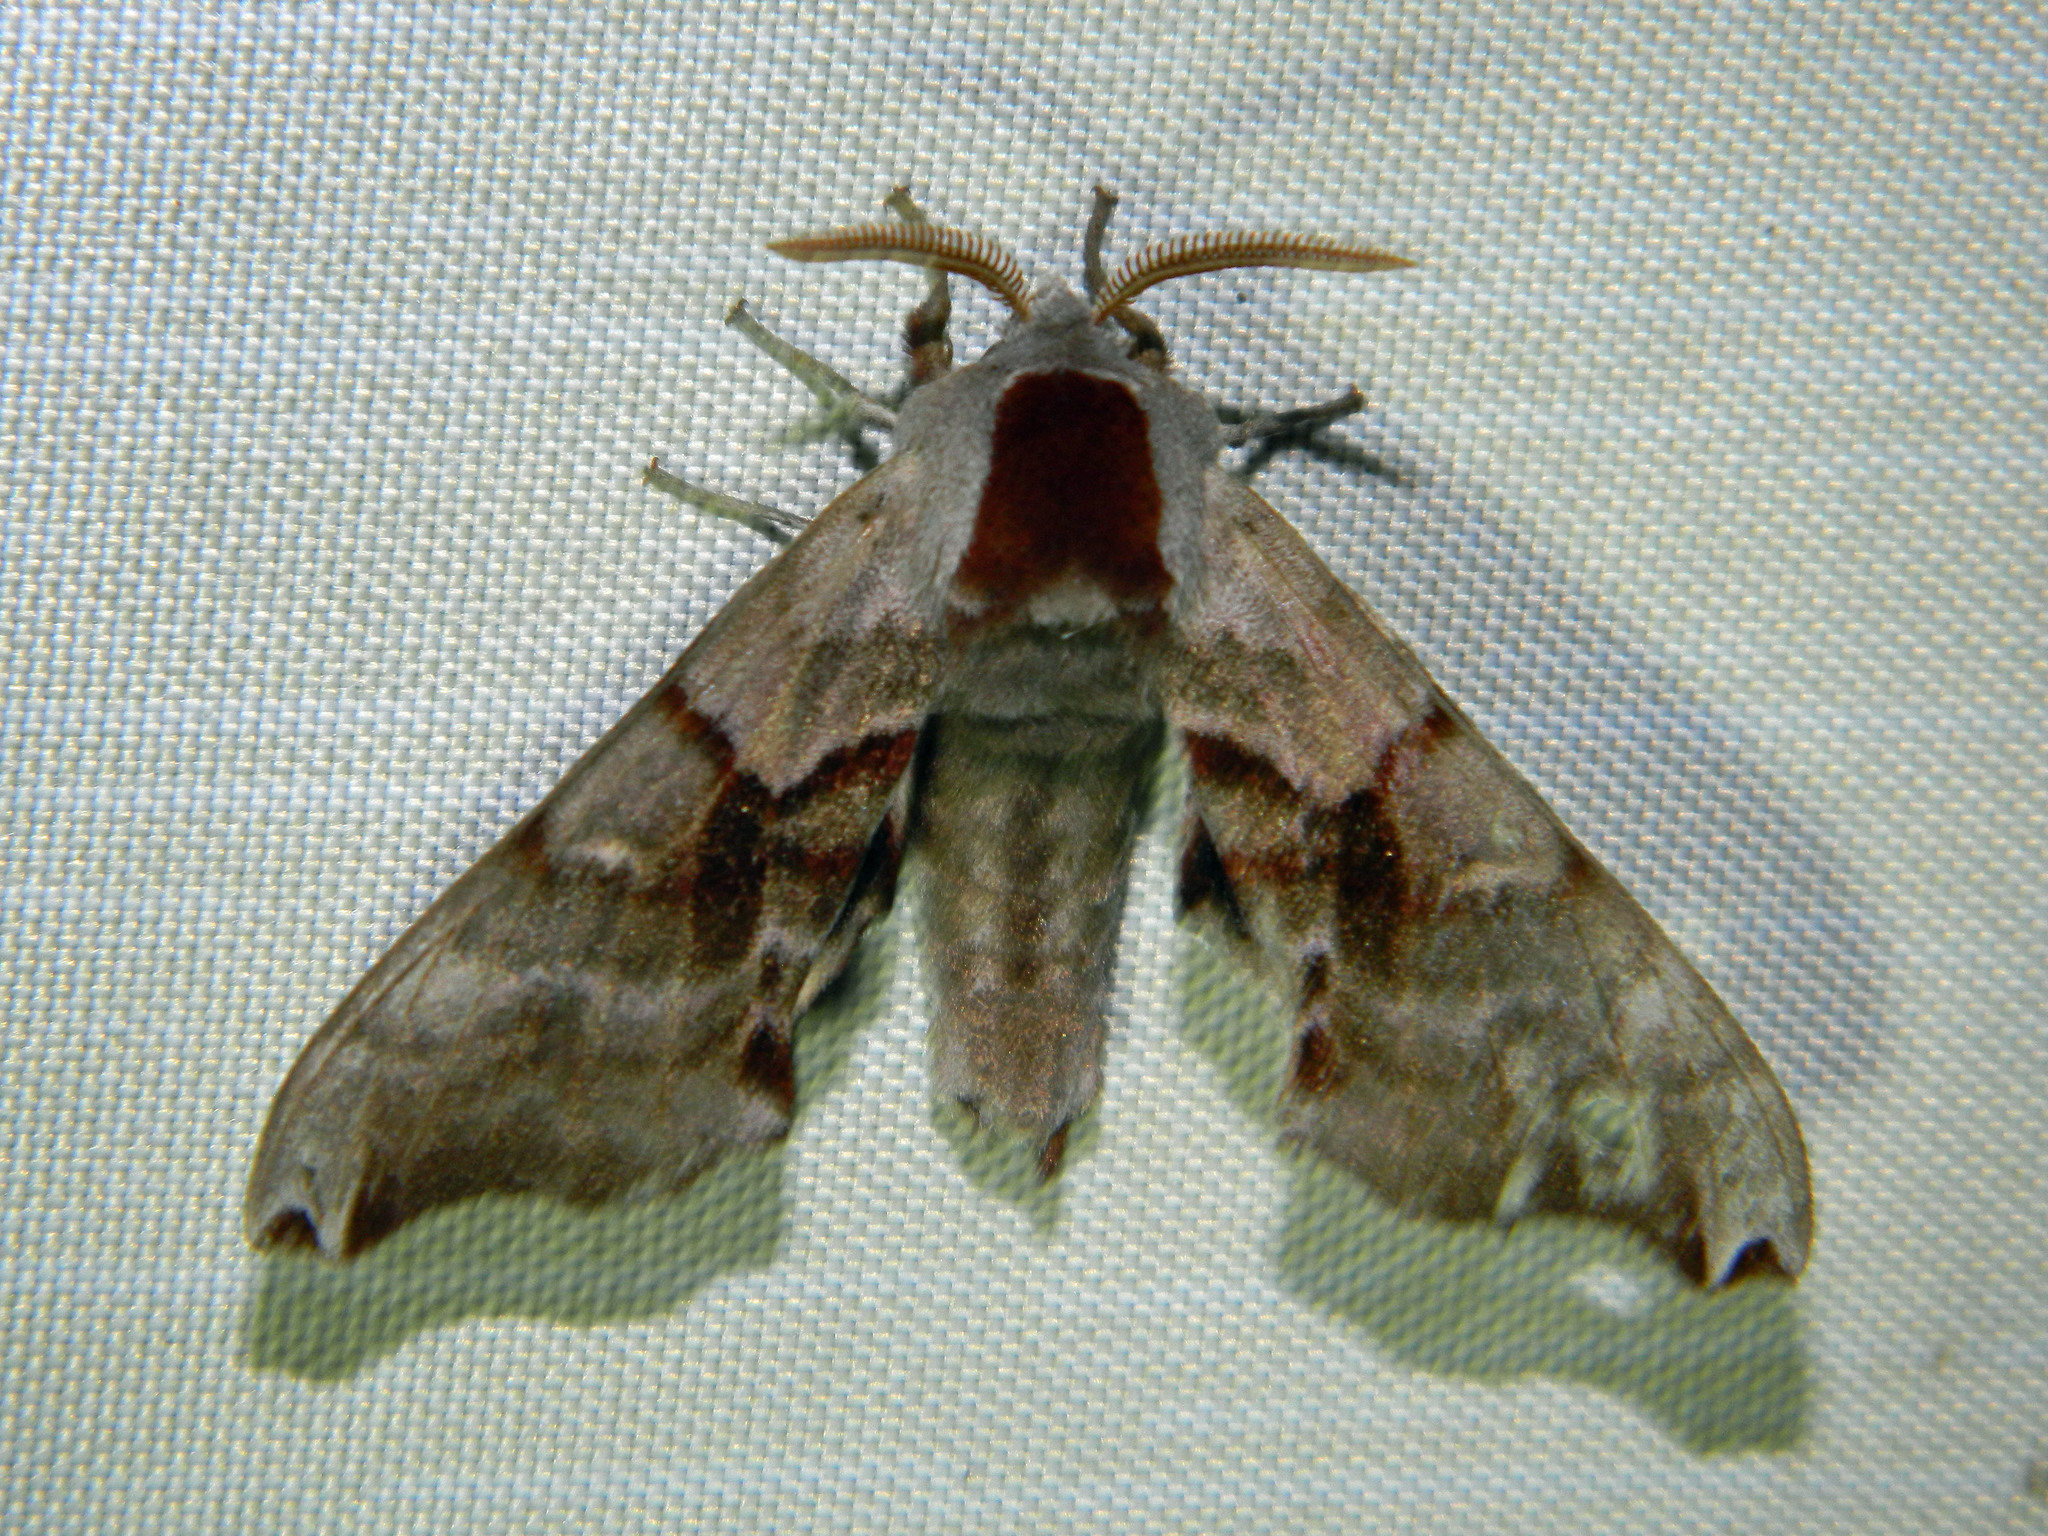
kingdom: Animalia
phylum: Arthropoda
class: Insecta
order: Lepidoptera
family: Sphingidae
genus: Smerinthus
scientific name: Smerinthus jamaicensis
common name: Twin spotted sphinx
